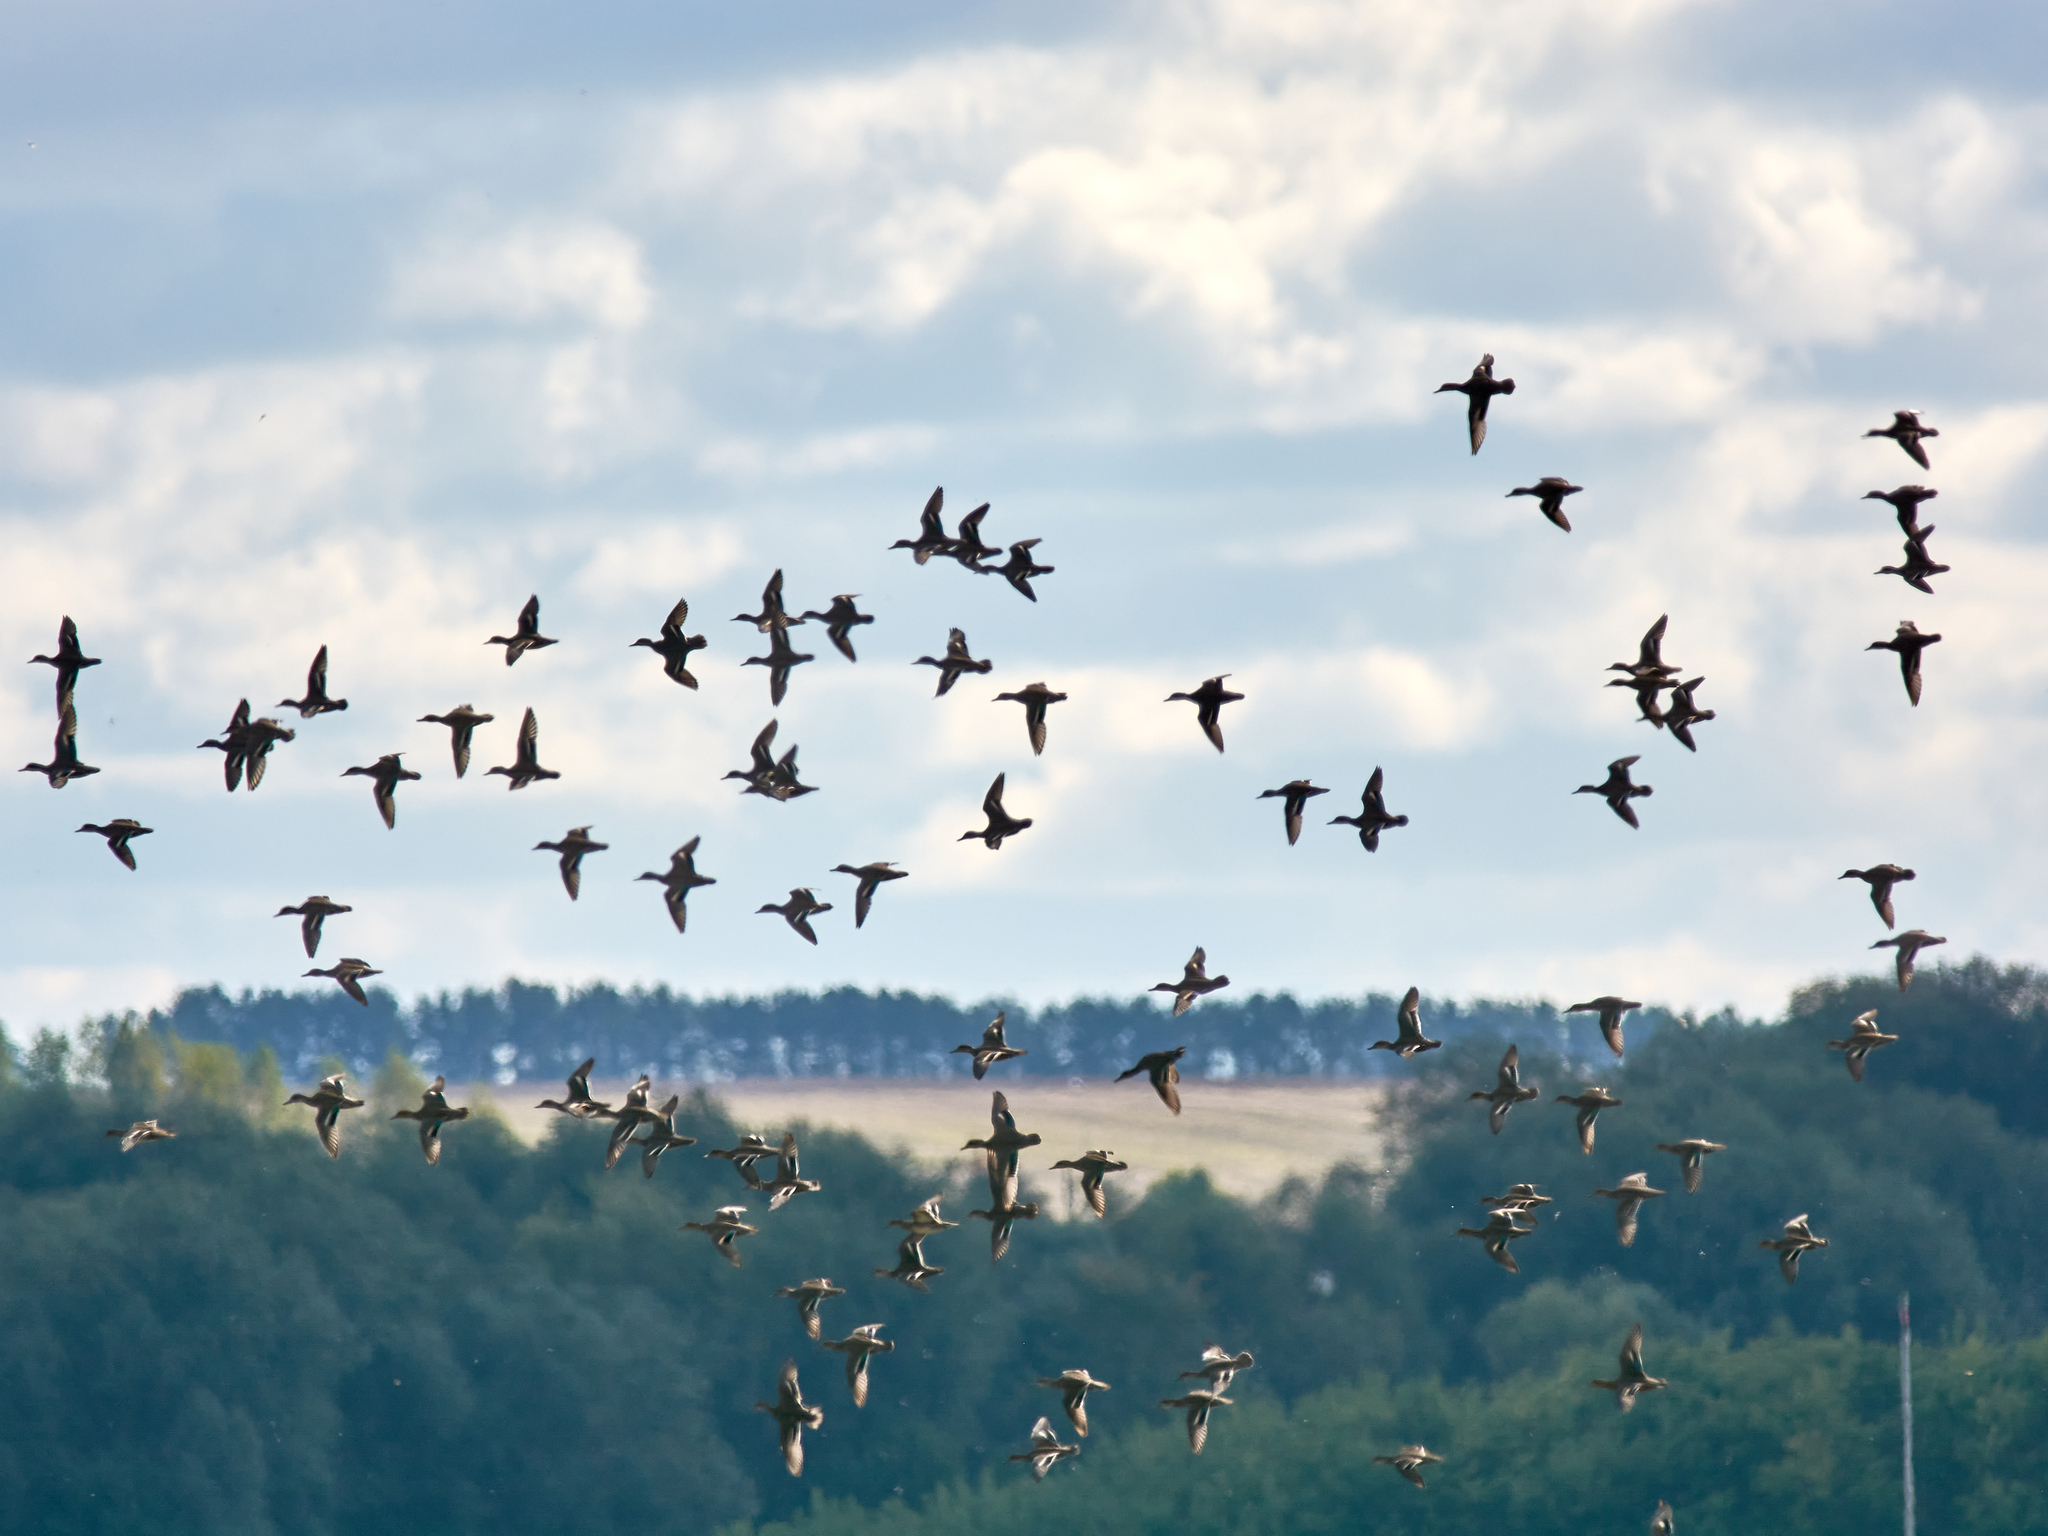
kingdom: Animalia
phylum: Chordata
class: Aves
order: Anseriformes
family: Anatidae
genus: Anas
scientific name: Anas crecca
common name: Eurasian teal
